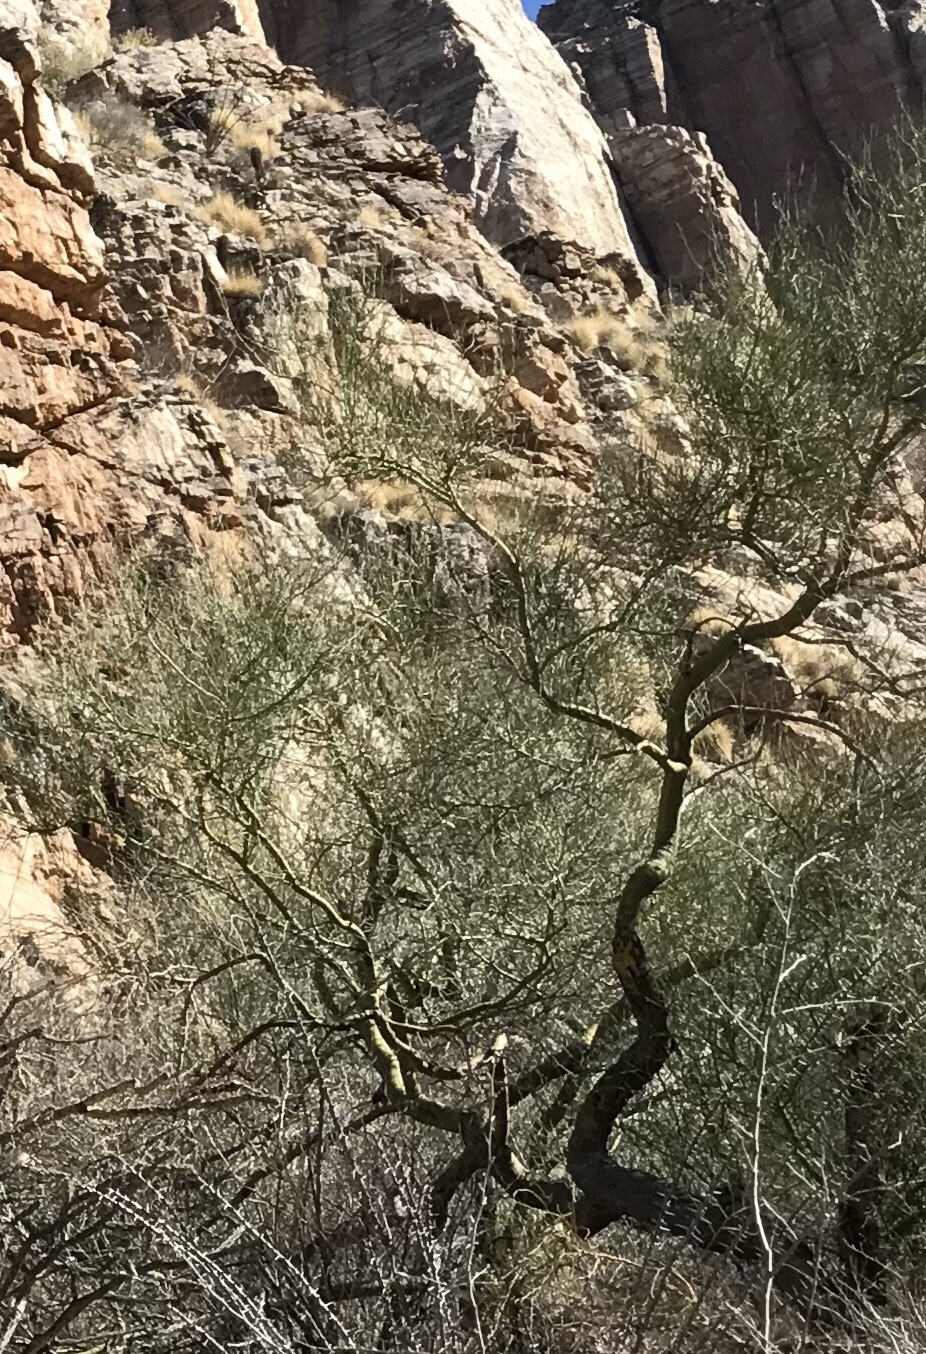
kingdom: Plantae
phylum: Tracheophyta
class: Magnoliopsida
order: Fabales
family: Fabaceae
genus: Parkinsonia
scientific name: Parkinsonia microphylla
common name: Yellow paloverde
